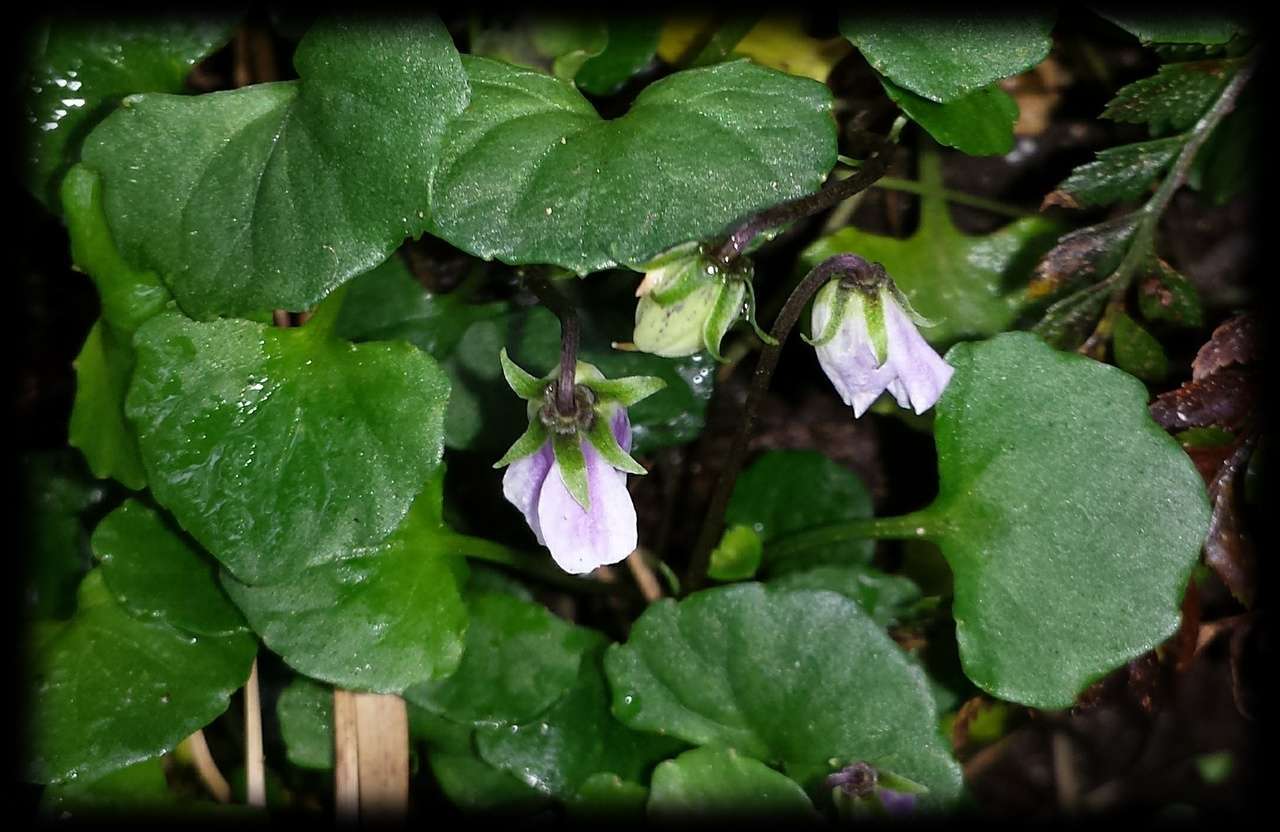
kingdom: Plantae
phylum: Tracheophyta
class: Magnoliopsida
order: Malpighiales
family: Violaceae
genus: Viola
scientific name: Viola curtisiae
